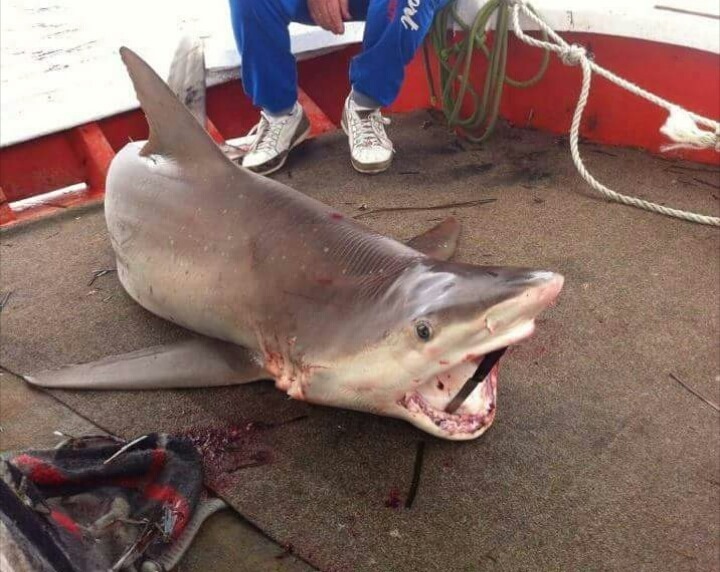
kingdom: Animalia
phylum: Chordata
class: Elasmobranchii
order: Carcharhiniformes
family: Carcharhinidae
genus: Carcharhinus
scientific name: Carcharhinus plumbeus
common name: Sandbar shark
